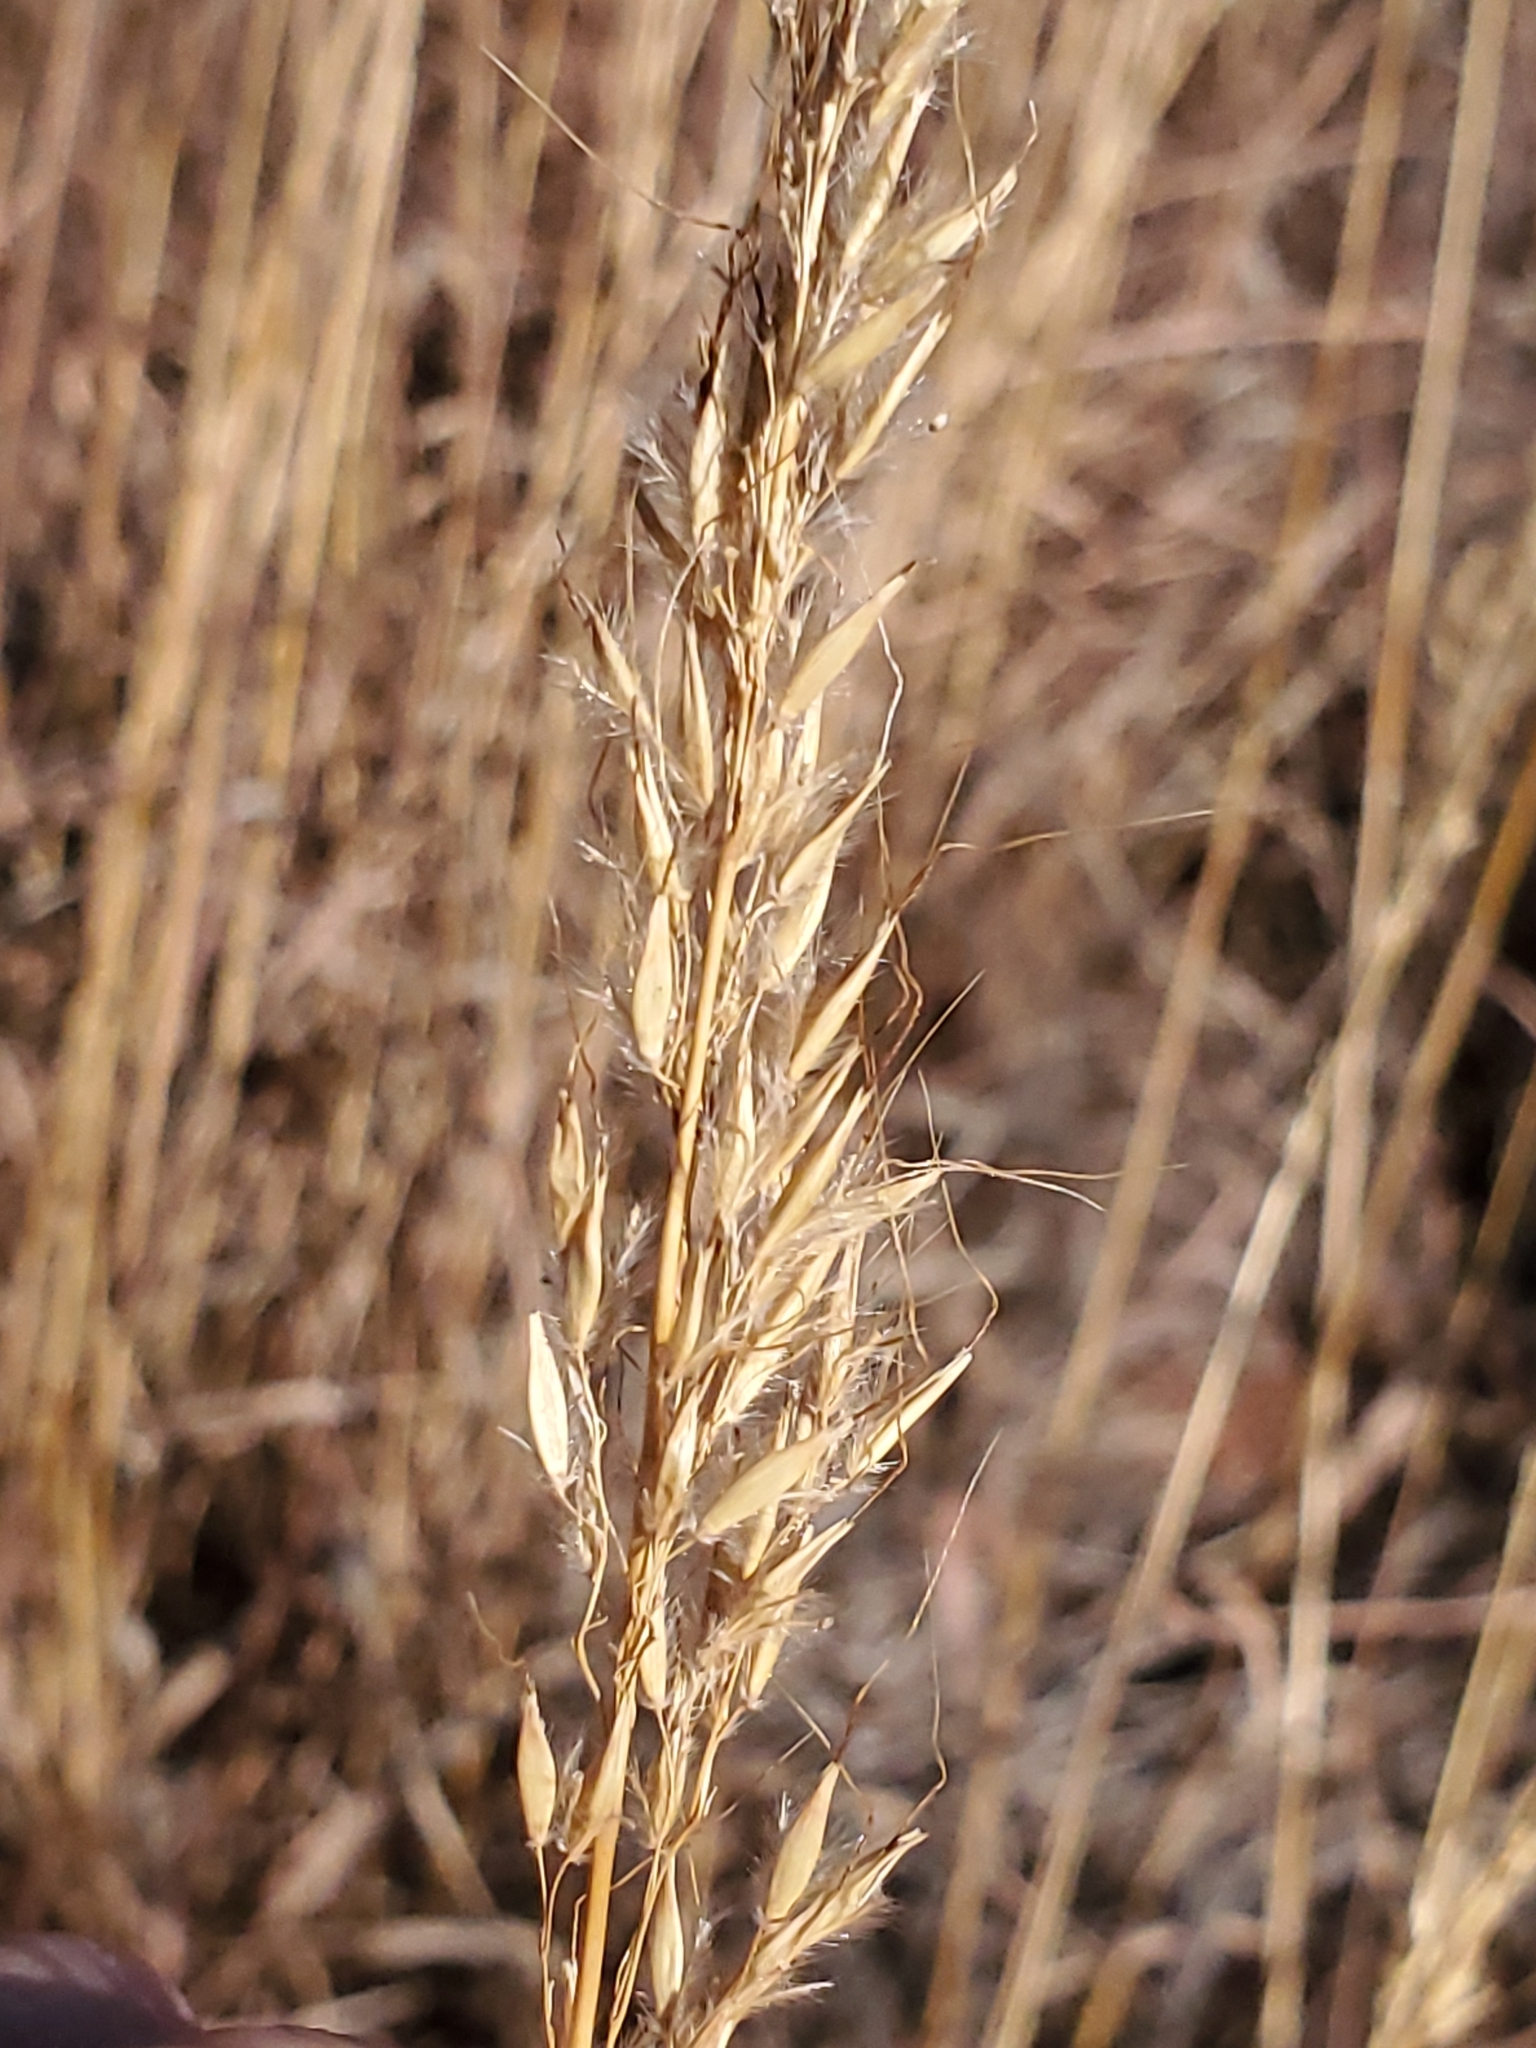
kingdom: Plantae
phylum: Tracheophyta
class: Liliopsida
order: Poales
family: Poaceae
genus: Sorghastrum
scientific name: Sorghastrum nutans
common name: Indian grass
